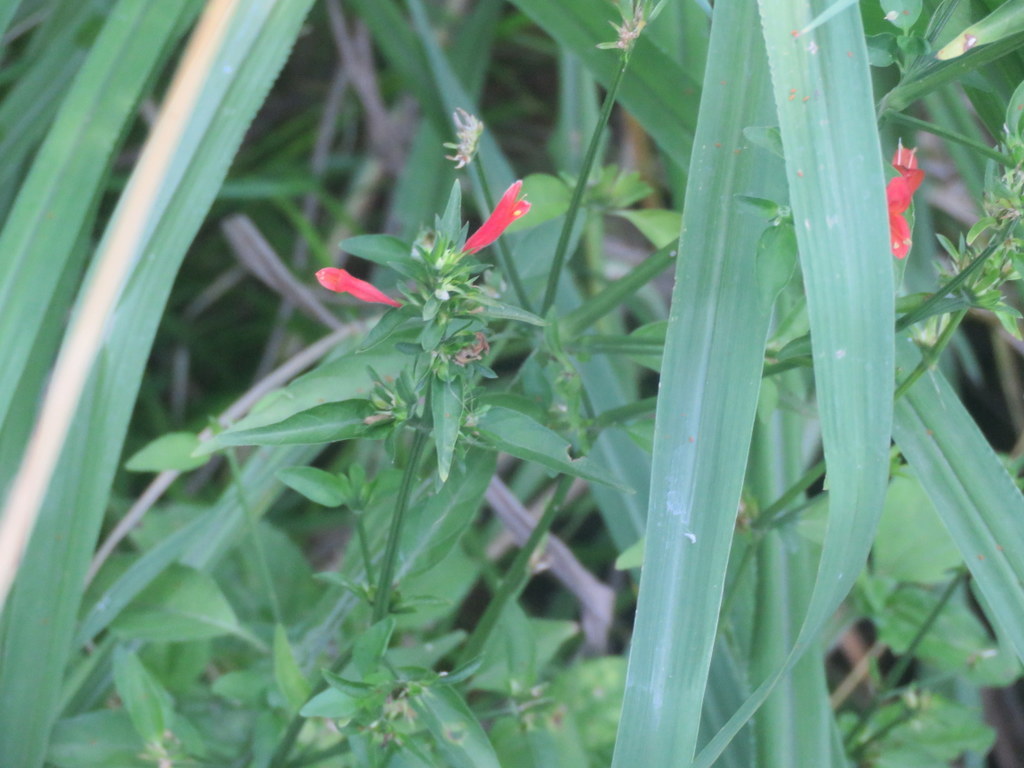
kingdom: Plantae
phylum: Tracheophyta
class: Magnoliopsida
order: Lamiales
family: Acanthaceae
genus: Dicliptera
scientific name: Dicliptera squarrosa
